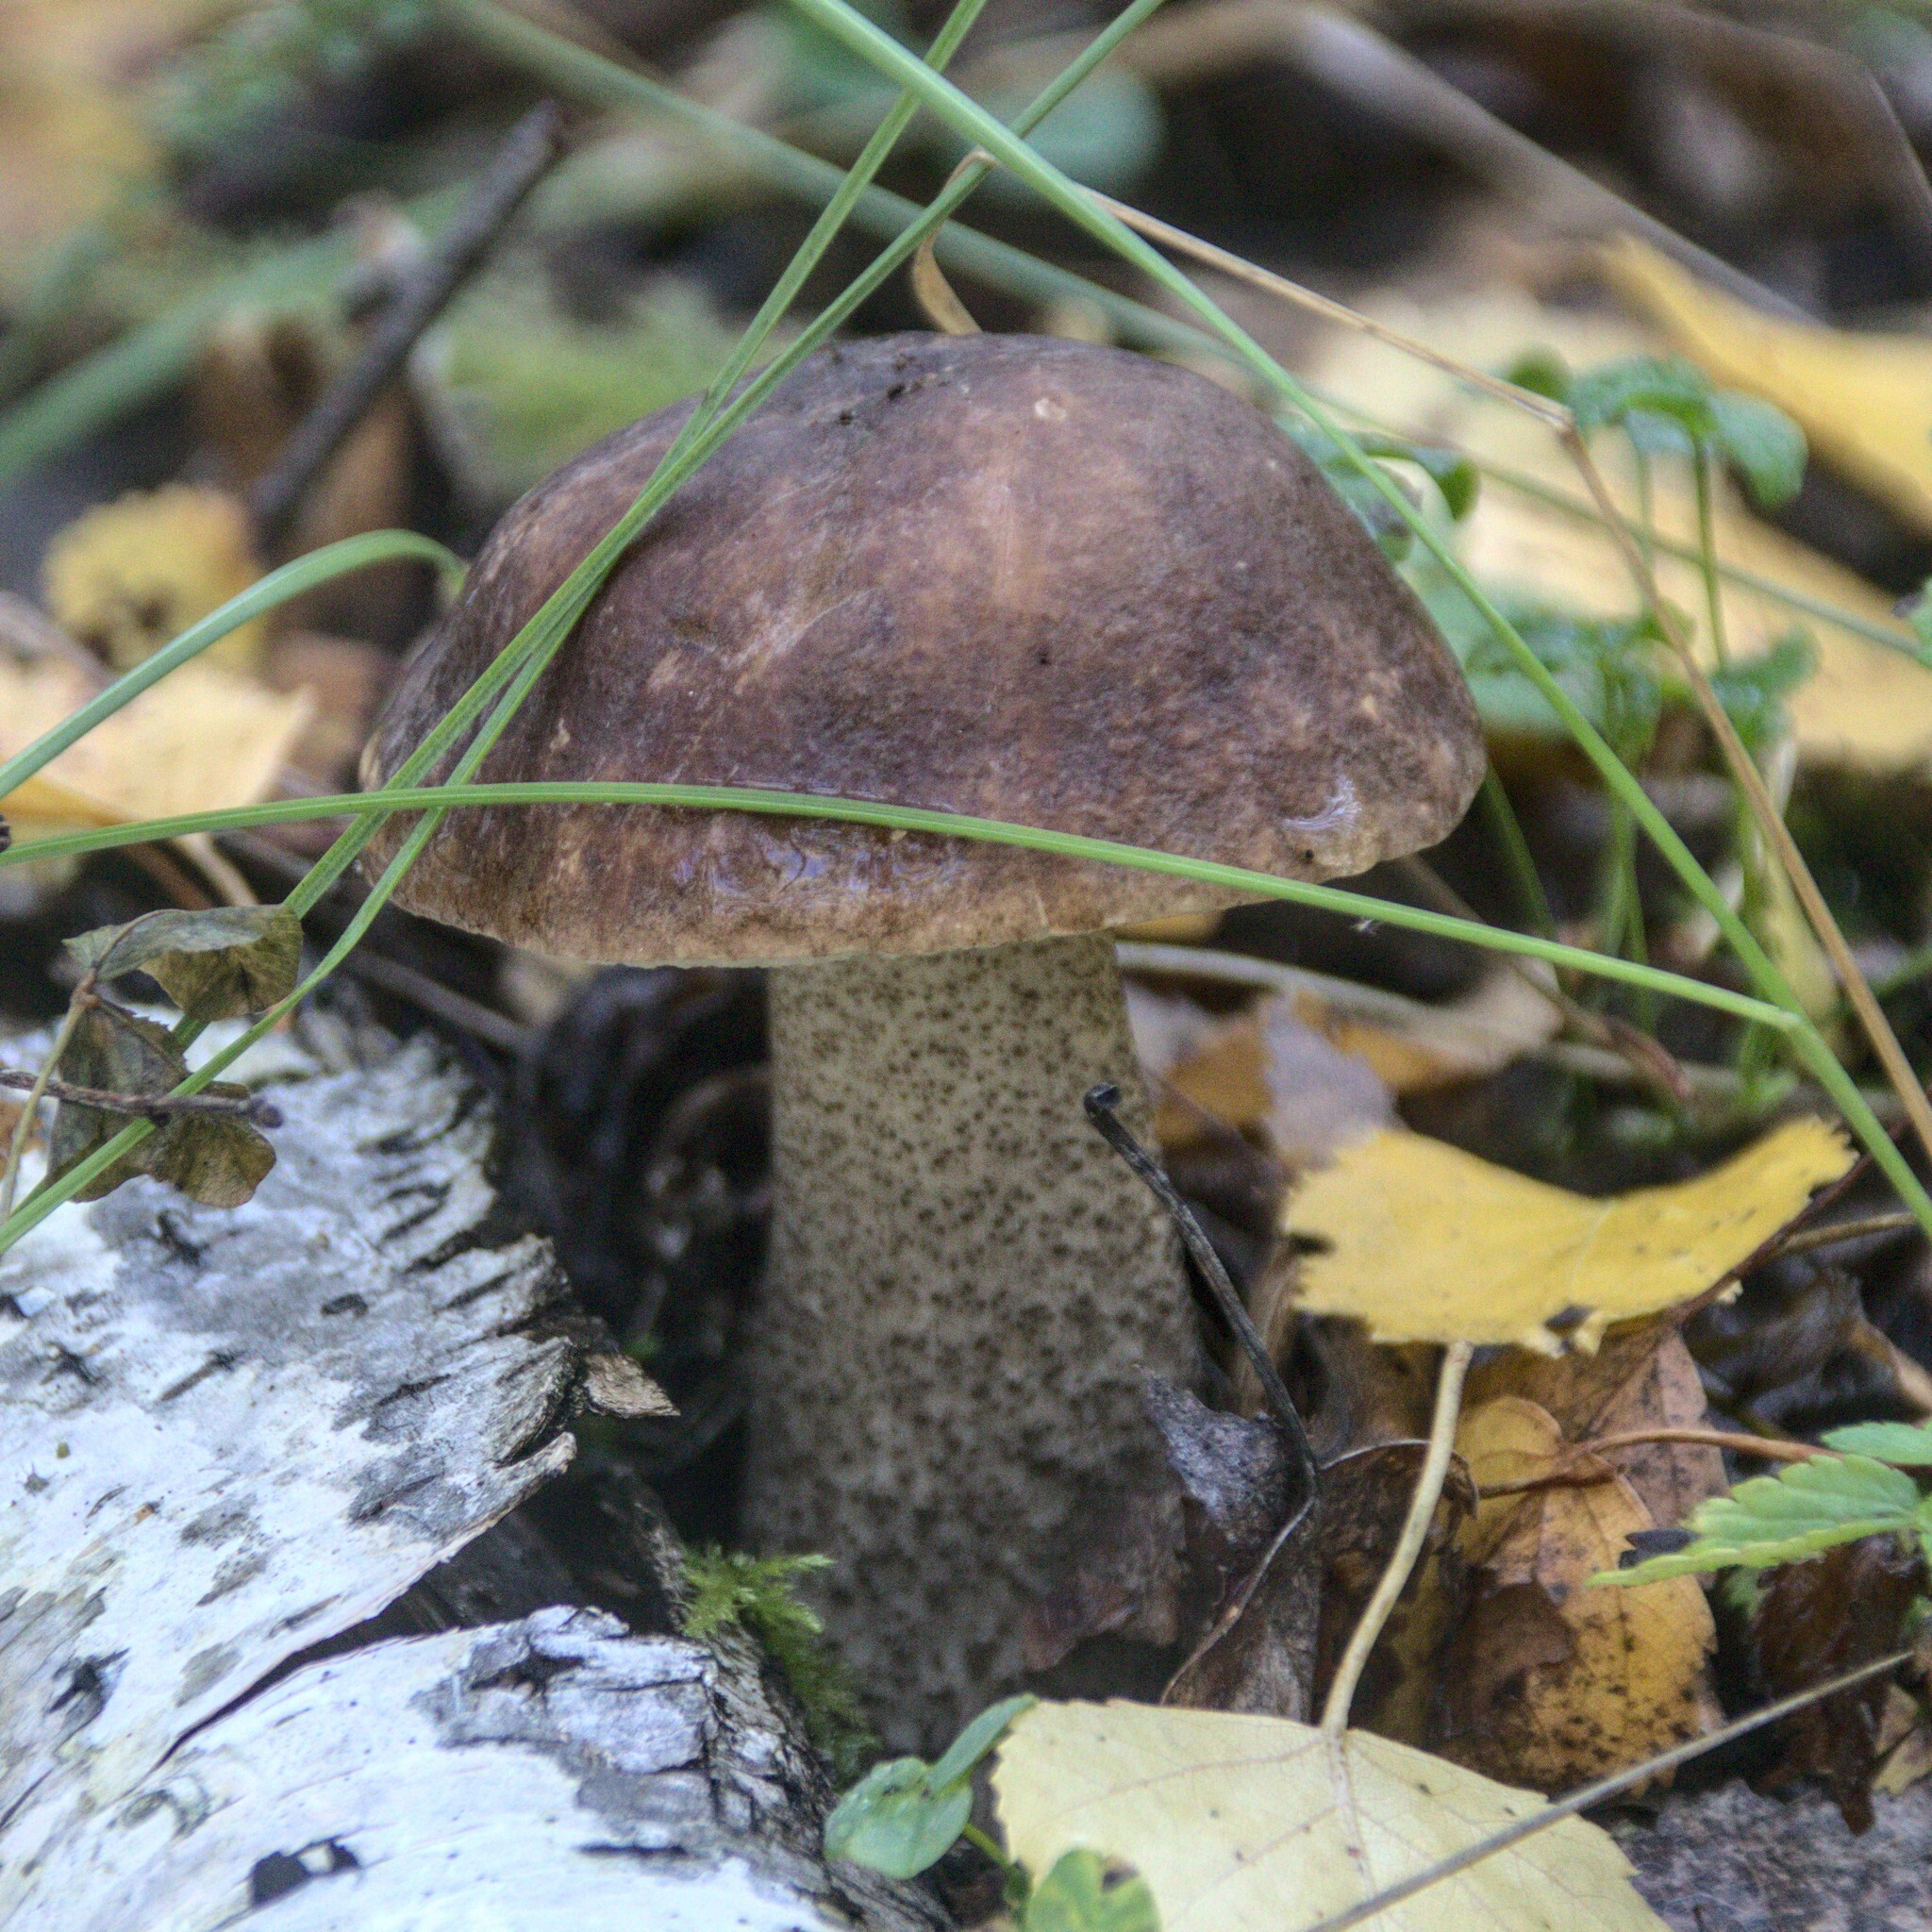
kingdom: Fungi
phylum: Basidiomycota
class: Agaricomycetes
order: Boletales
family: Boletaceae
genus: Leccinum
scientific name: Leccinum scabrum
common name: Blushing bolete
